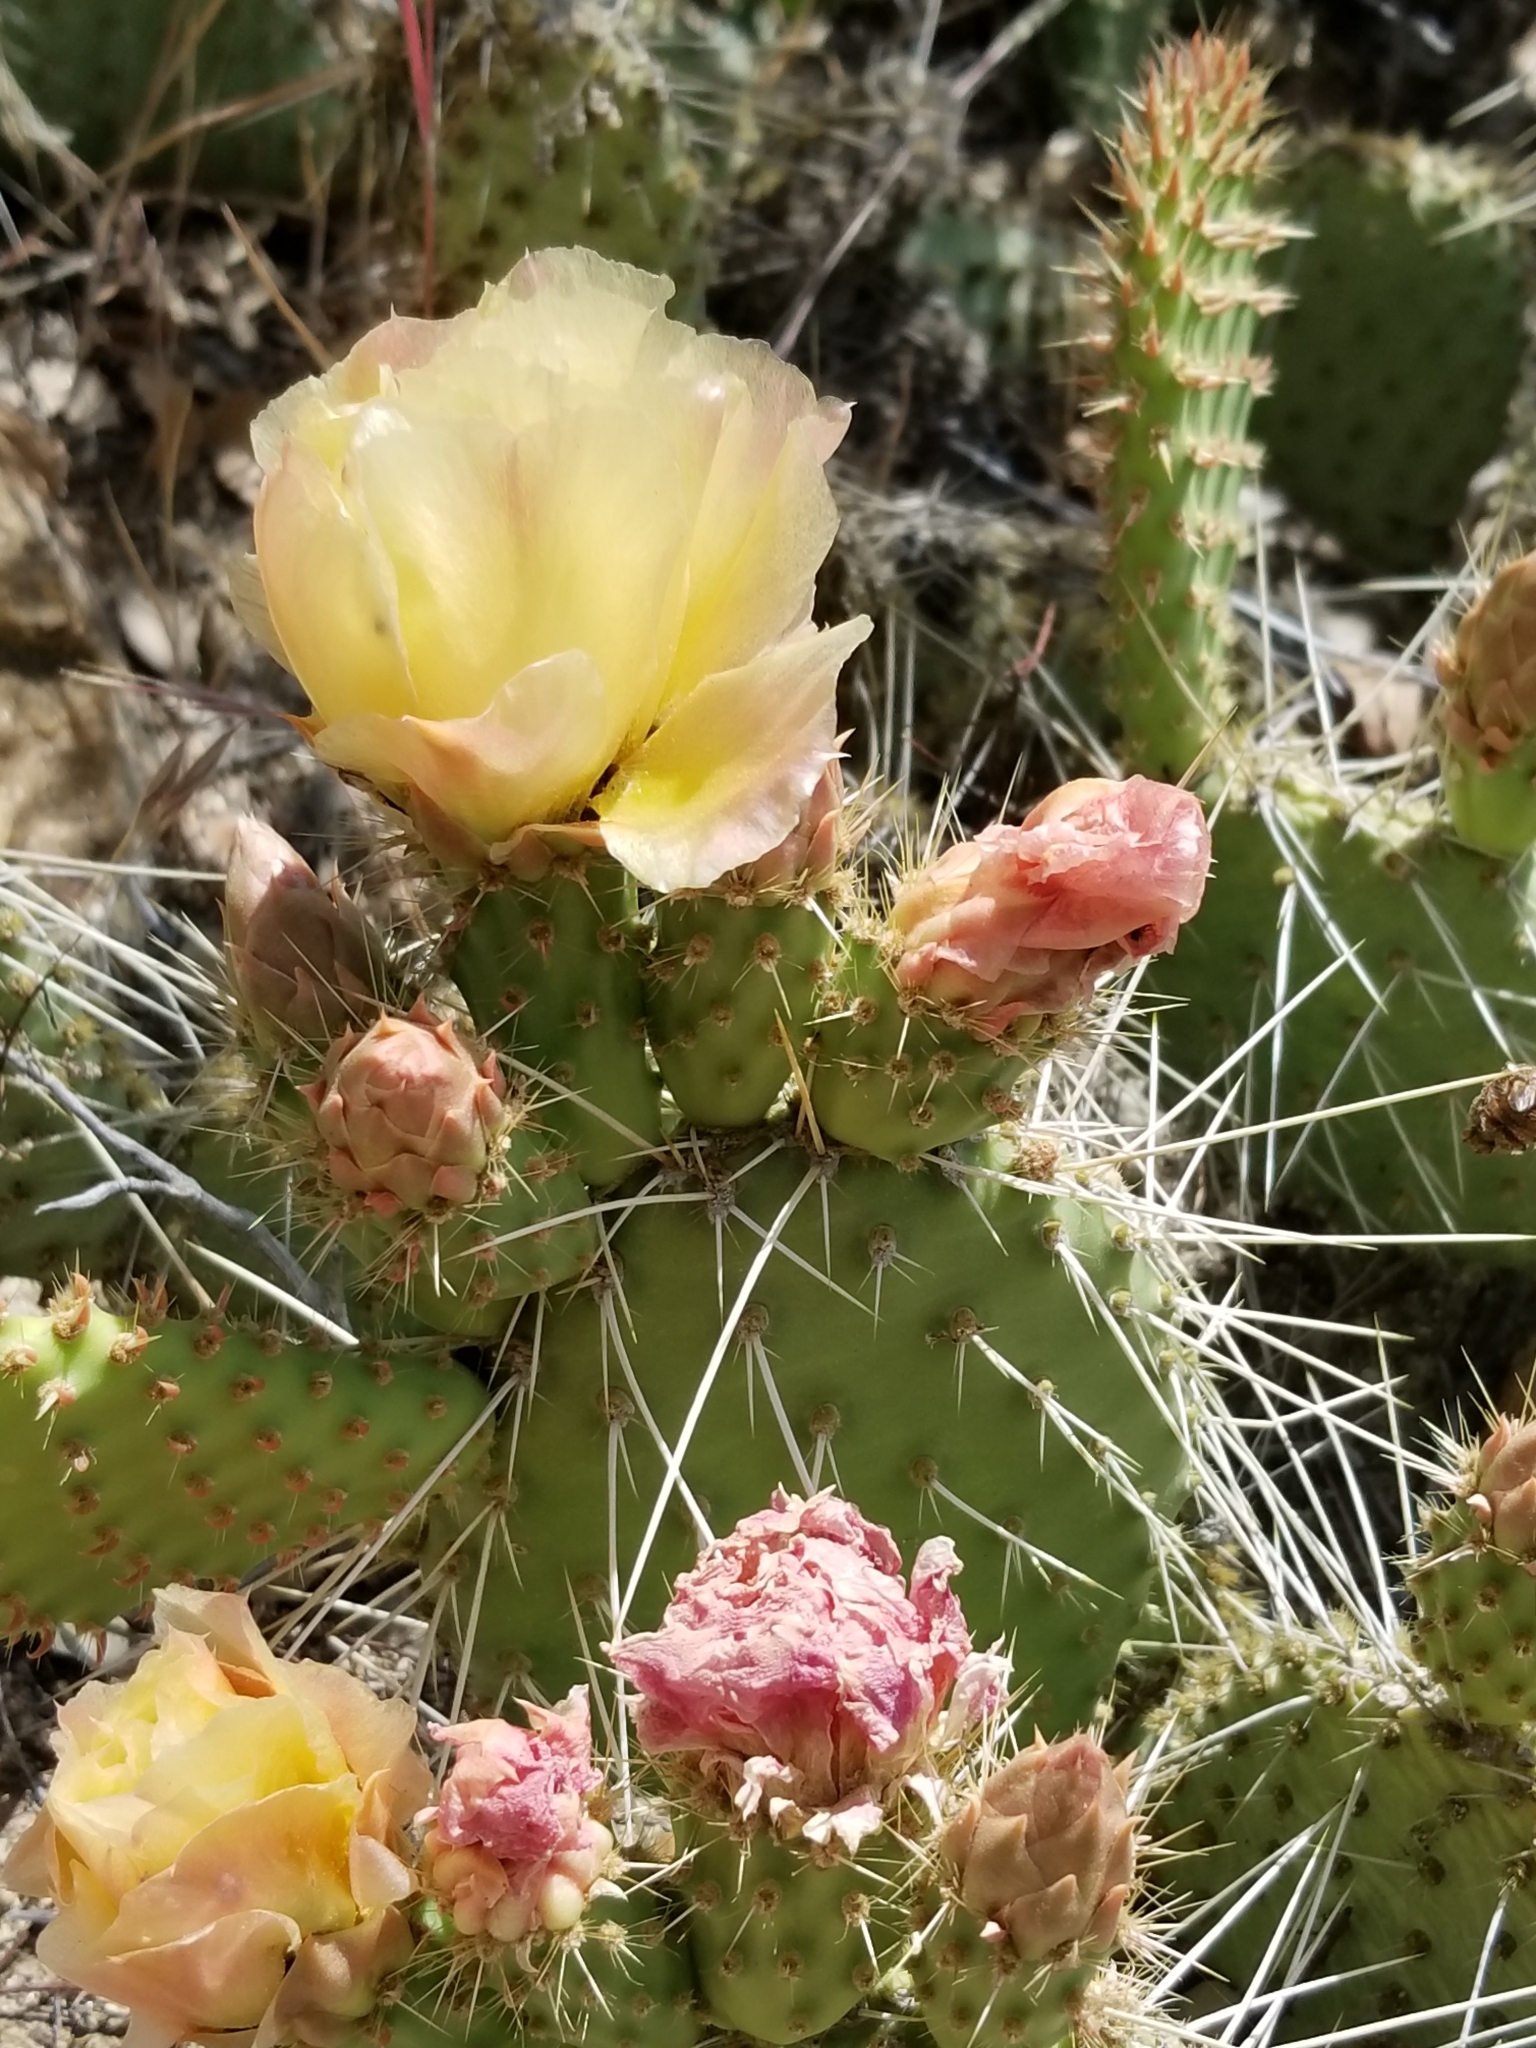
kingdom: Plantae
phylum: Tracheophyta
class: Magnoliopsida
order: Caryophyllales
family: Cactaceae
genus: Opuntia
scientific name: Opuntia polyacantha
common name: Plains prickly-pear
